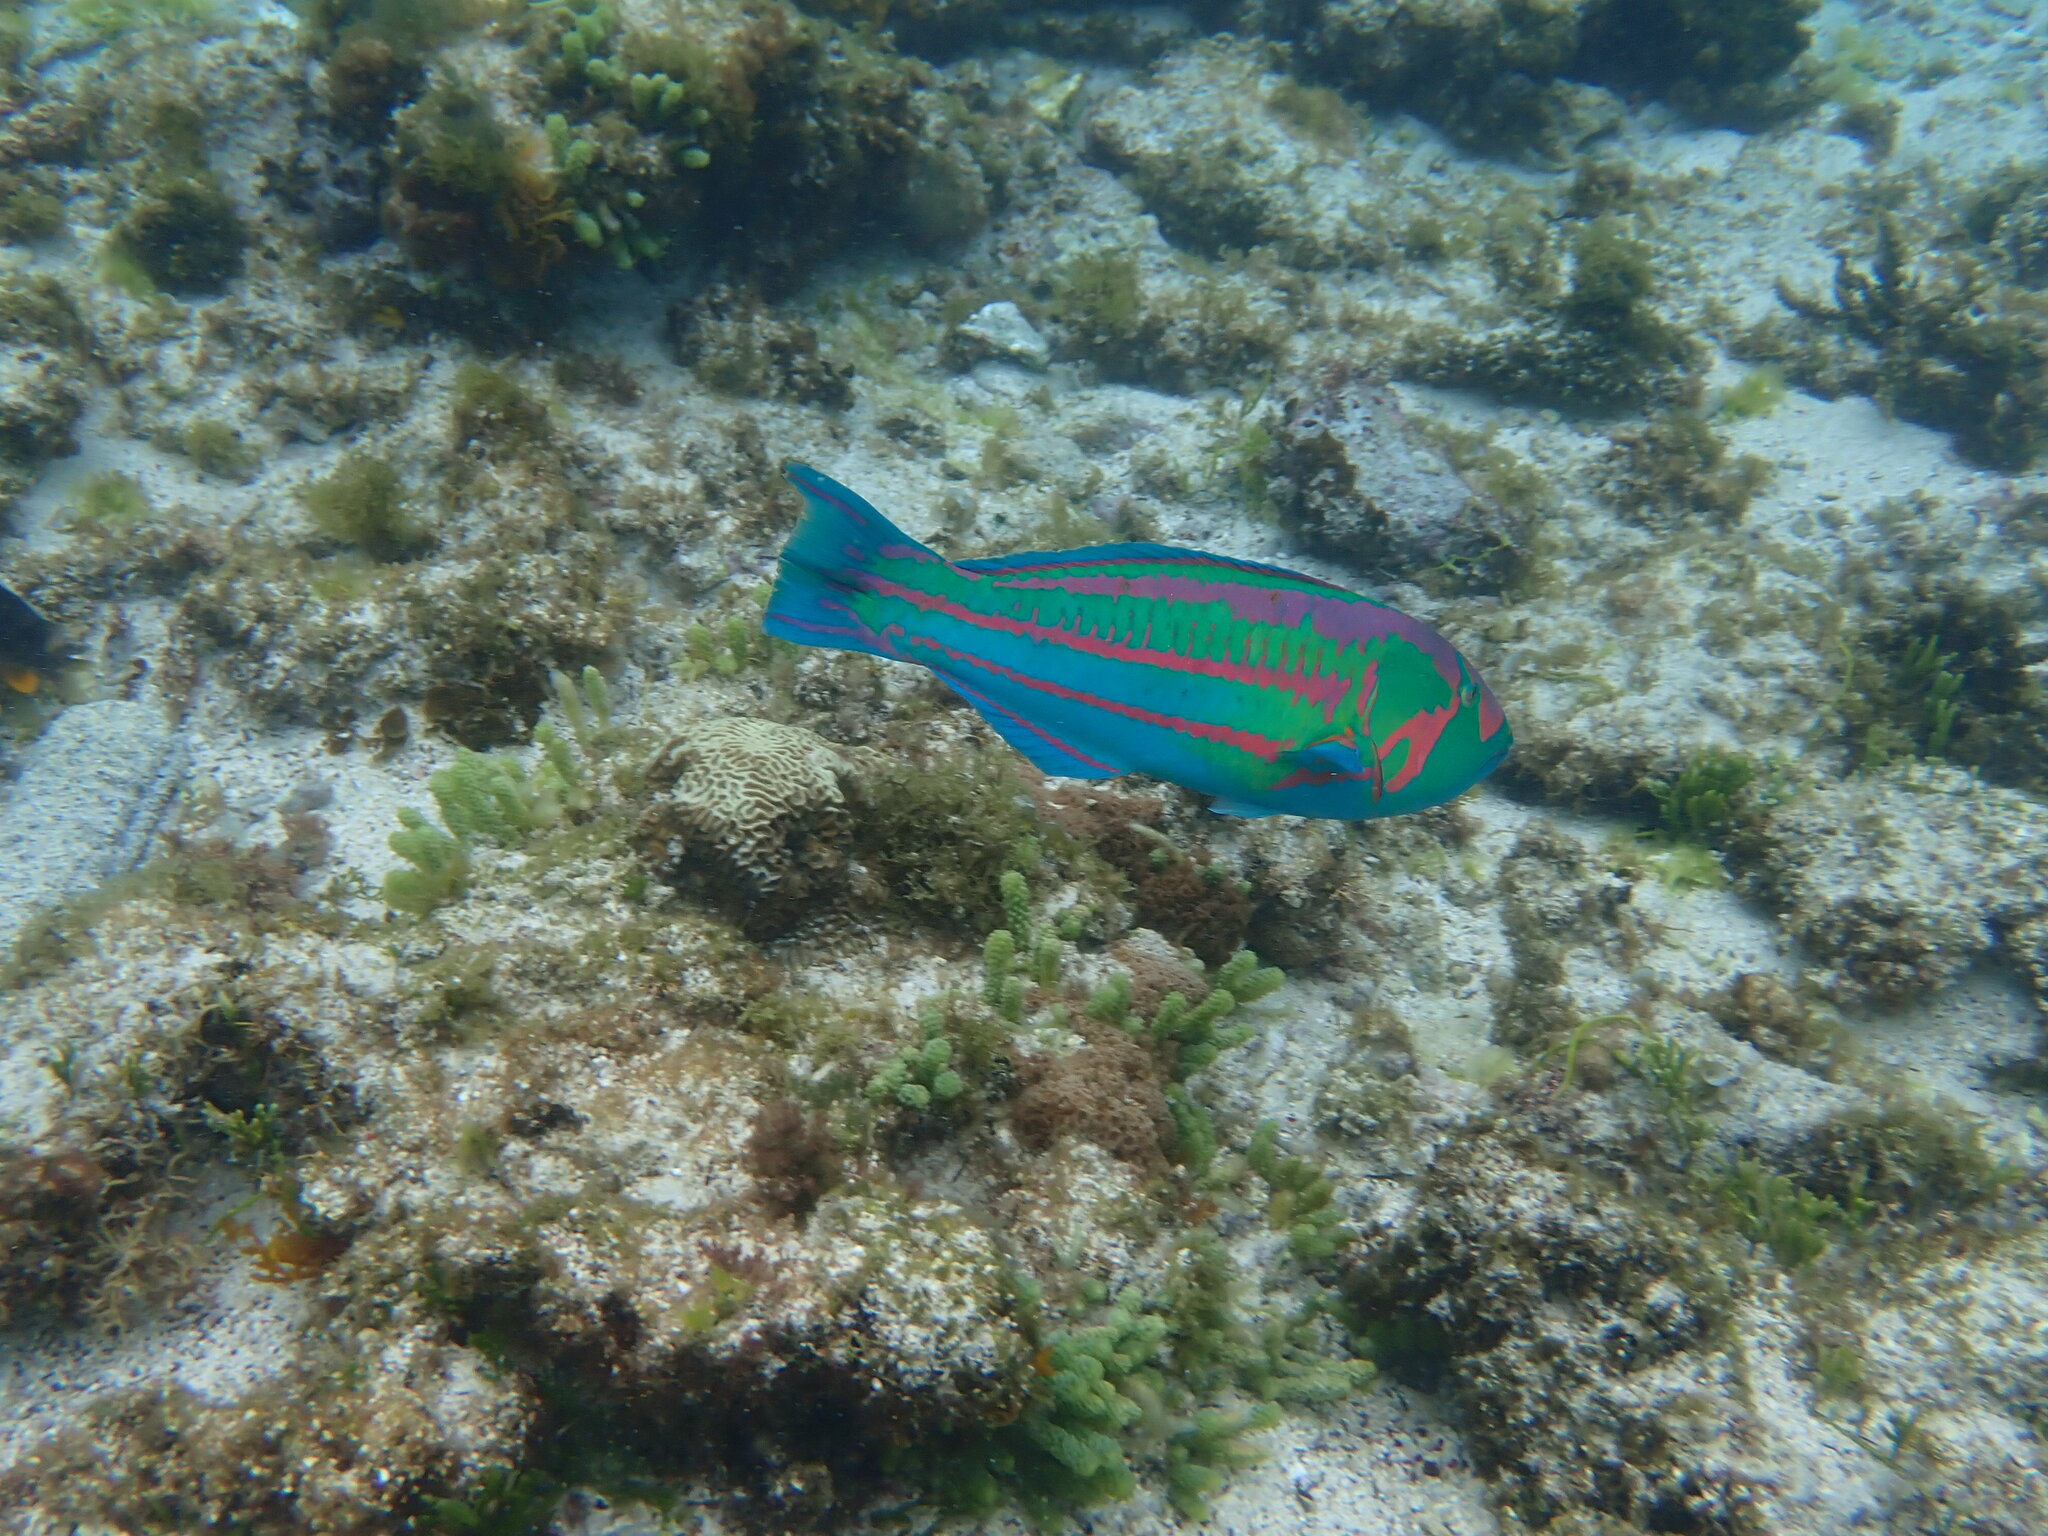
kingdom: Animalia
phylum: Chordata
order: Perciformes
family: Labridae
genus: Thalassoma
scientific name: Thalassoma purpureum
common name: Parrotfish
